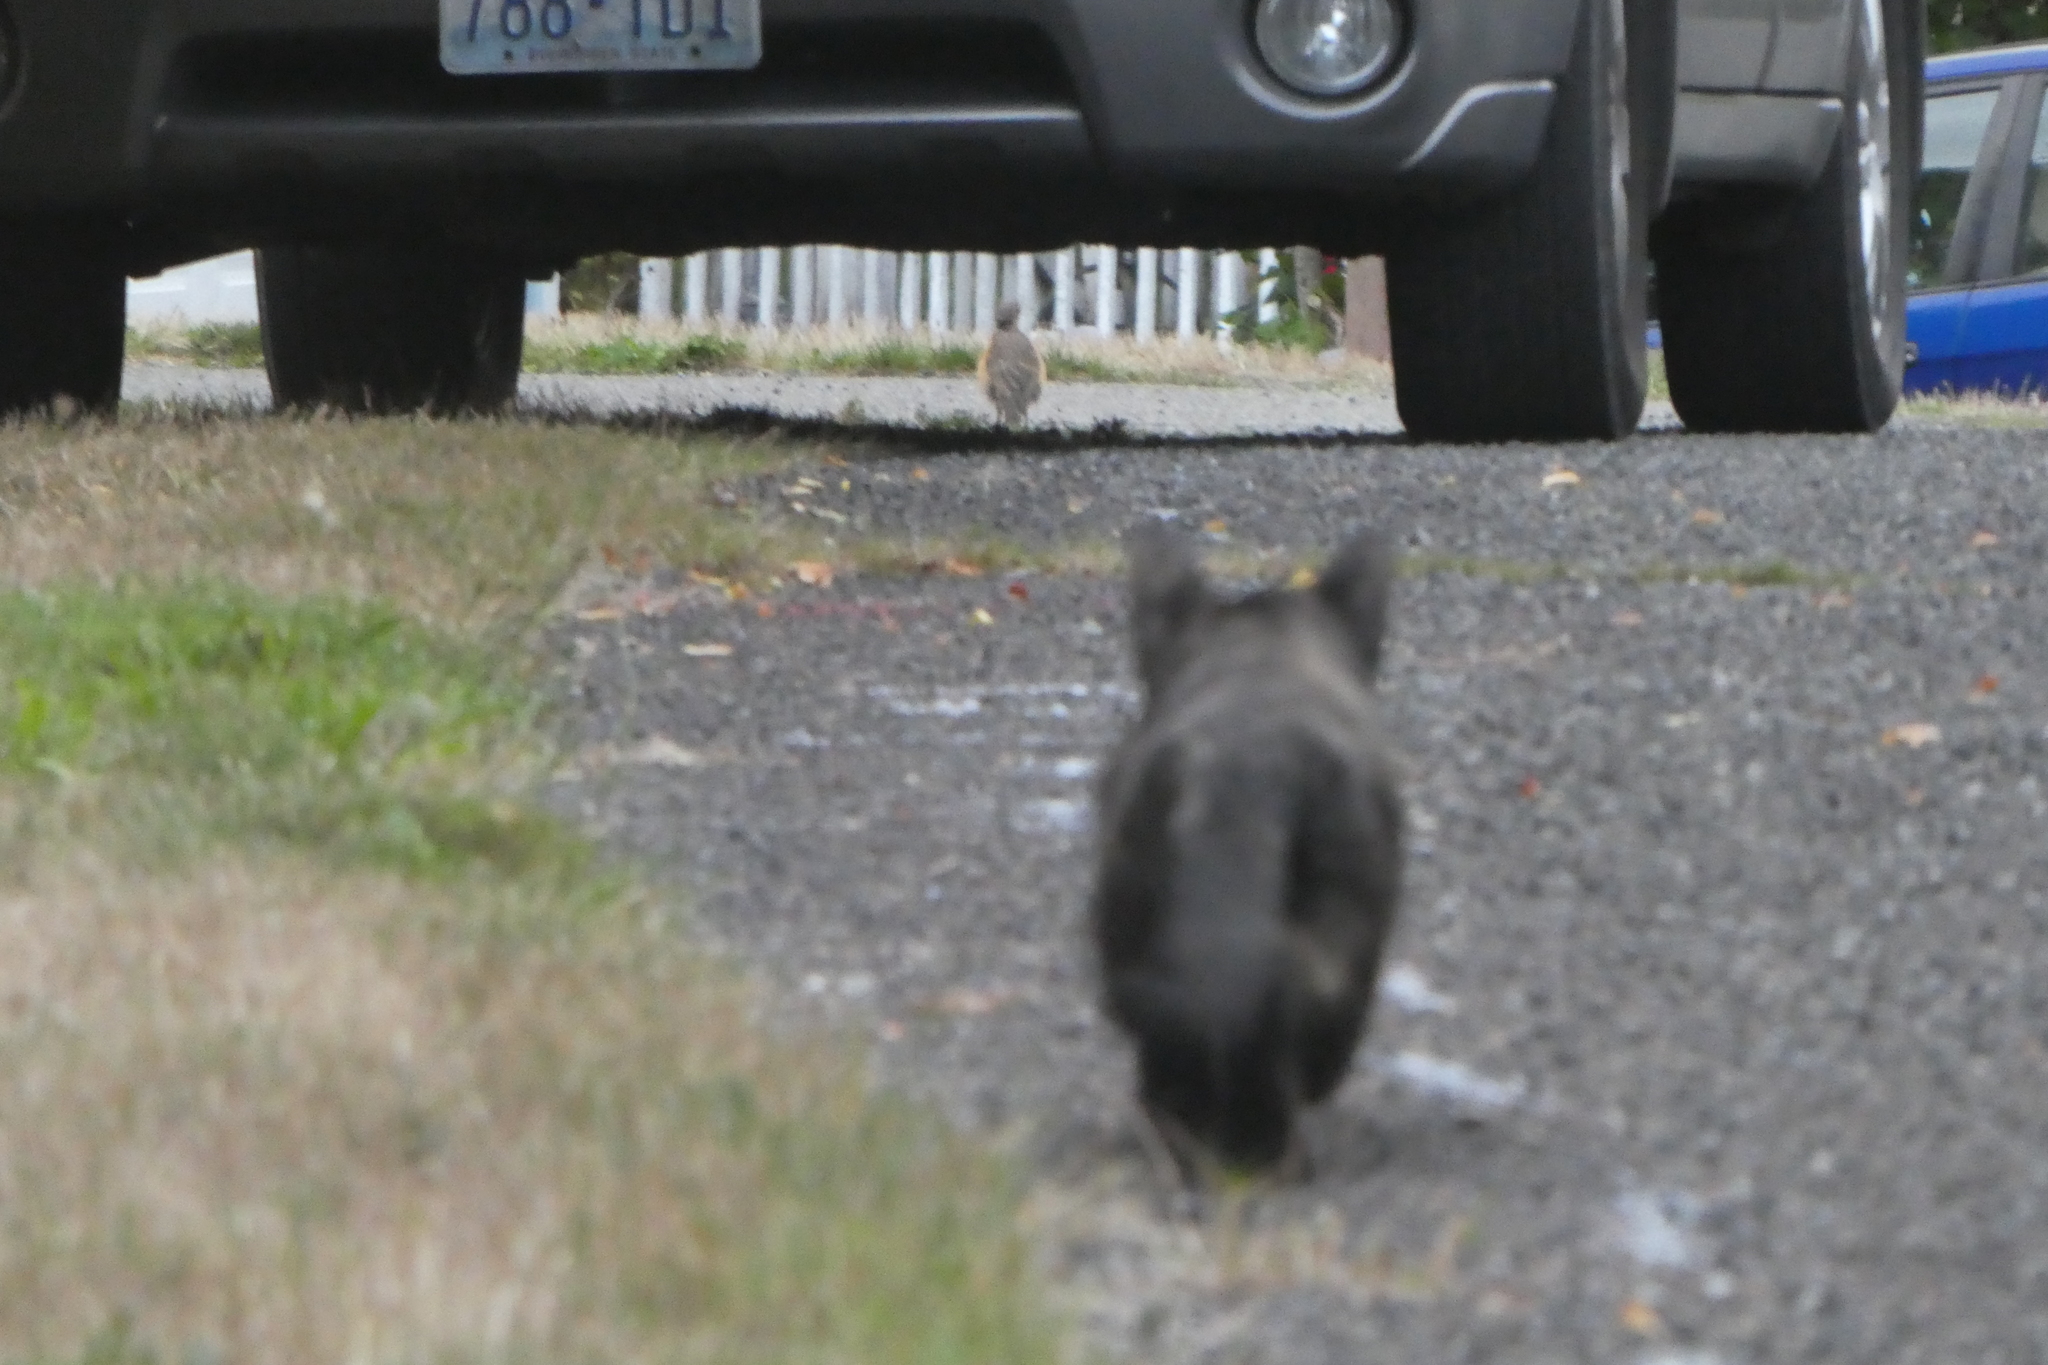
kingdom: Animalia
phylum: Chordata
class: Aves
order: Passeriformes
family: Turdidae
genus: Turdus
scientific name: Turdus migratorius
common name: American robin
